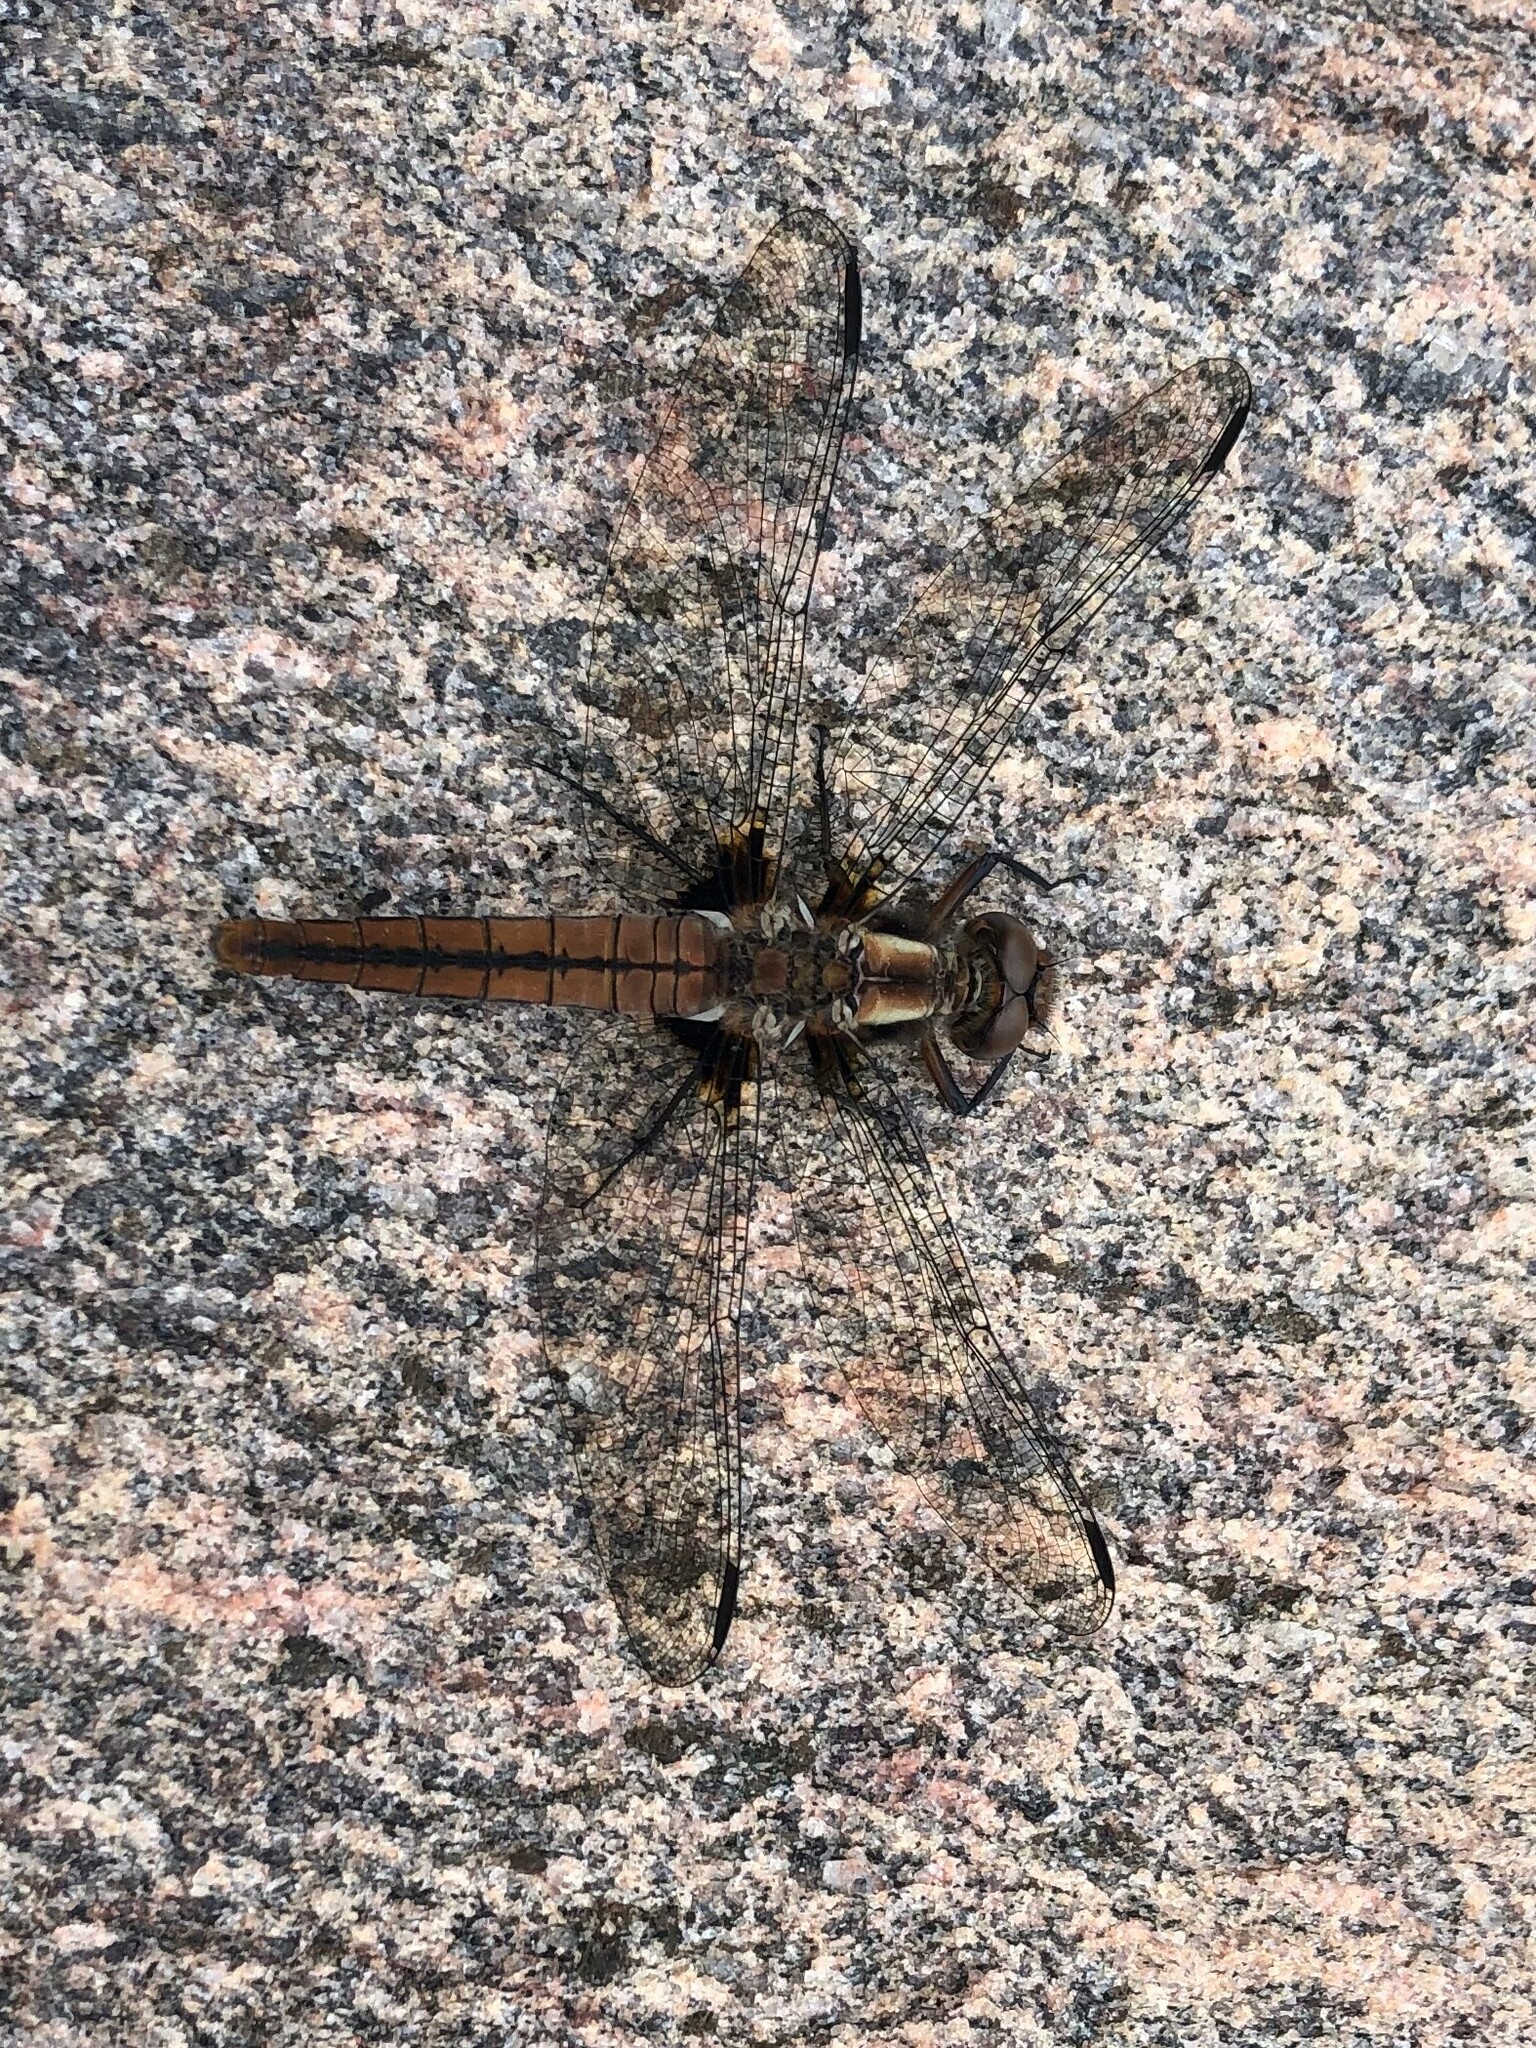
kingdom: Animalia
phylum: Arthropoda
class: Insecta
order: Odonata
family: Libellulidae
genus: Ladona
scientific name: Ladona julia
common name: Chalk-fronted corporal
